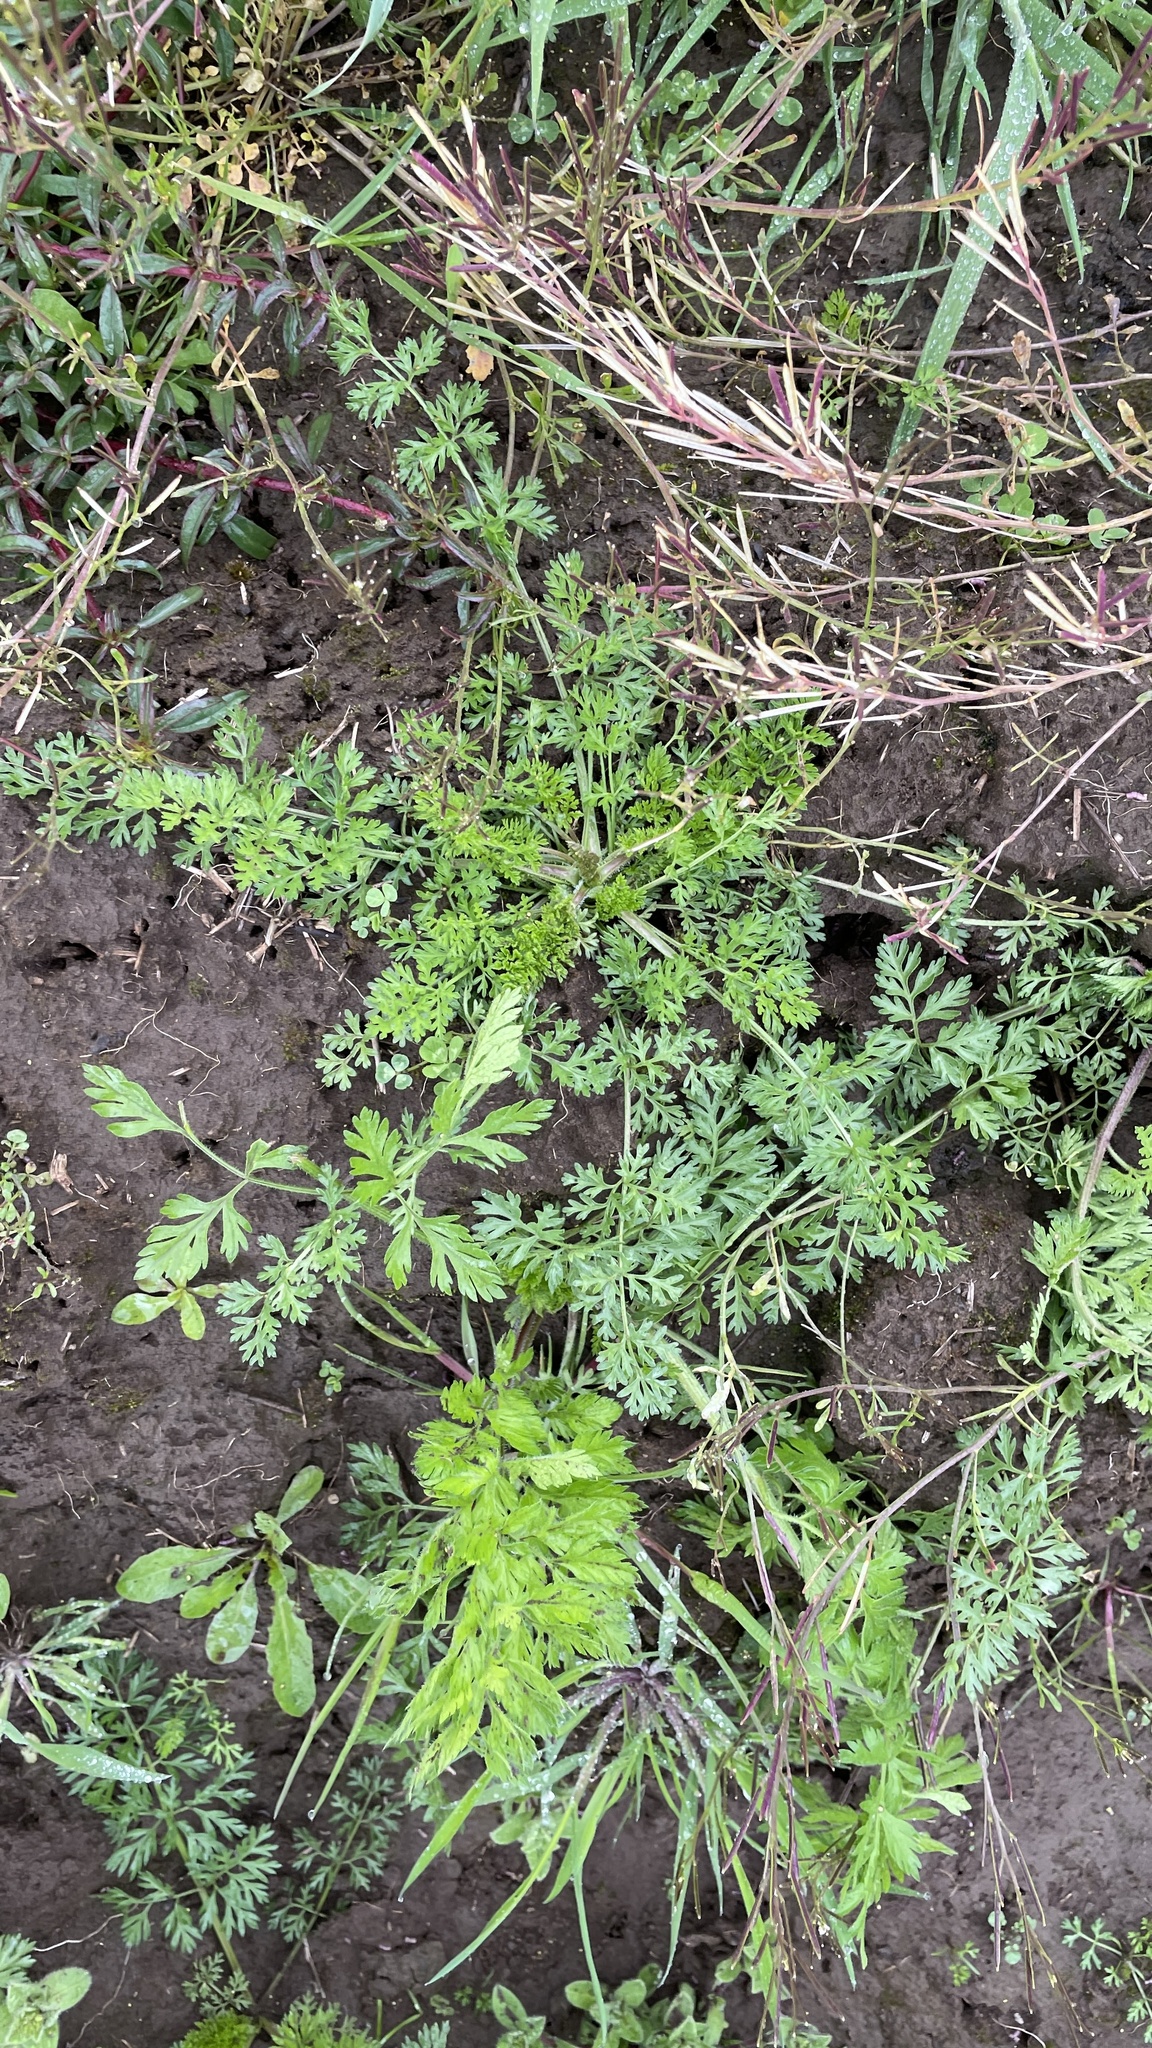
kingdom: Plantae
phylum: Tracheophyta
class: Magnoliopsida
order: Apiales
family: Apiaceae
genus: Daucus
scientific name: Daucus carota
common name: Wild carrot
